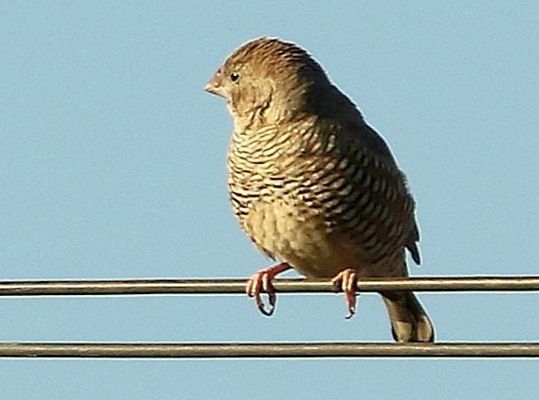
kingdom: Animalia
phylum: Chordata
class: Aves
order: Passeriformes
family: Estrildidae
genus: Amadina
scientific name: Amadina erythrocephala
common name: Red-headed finch
